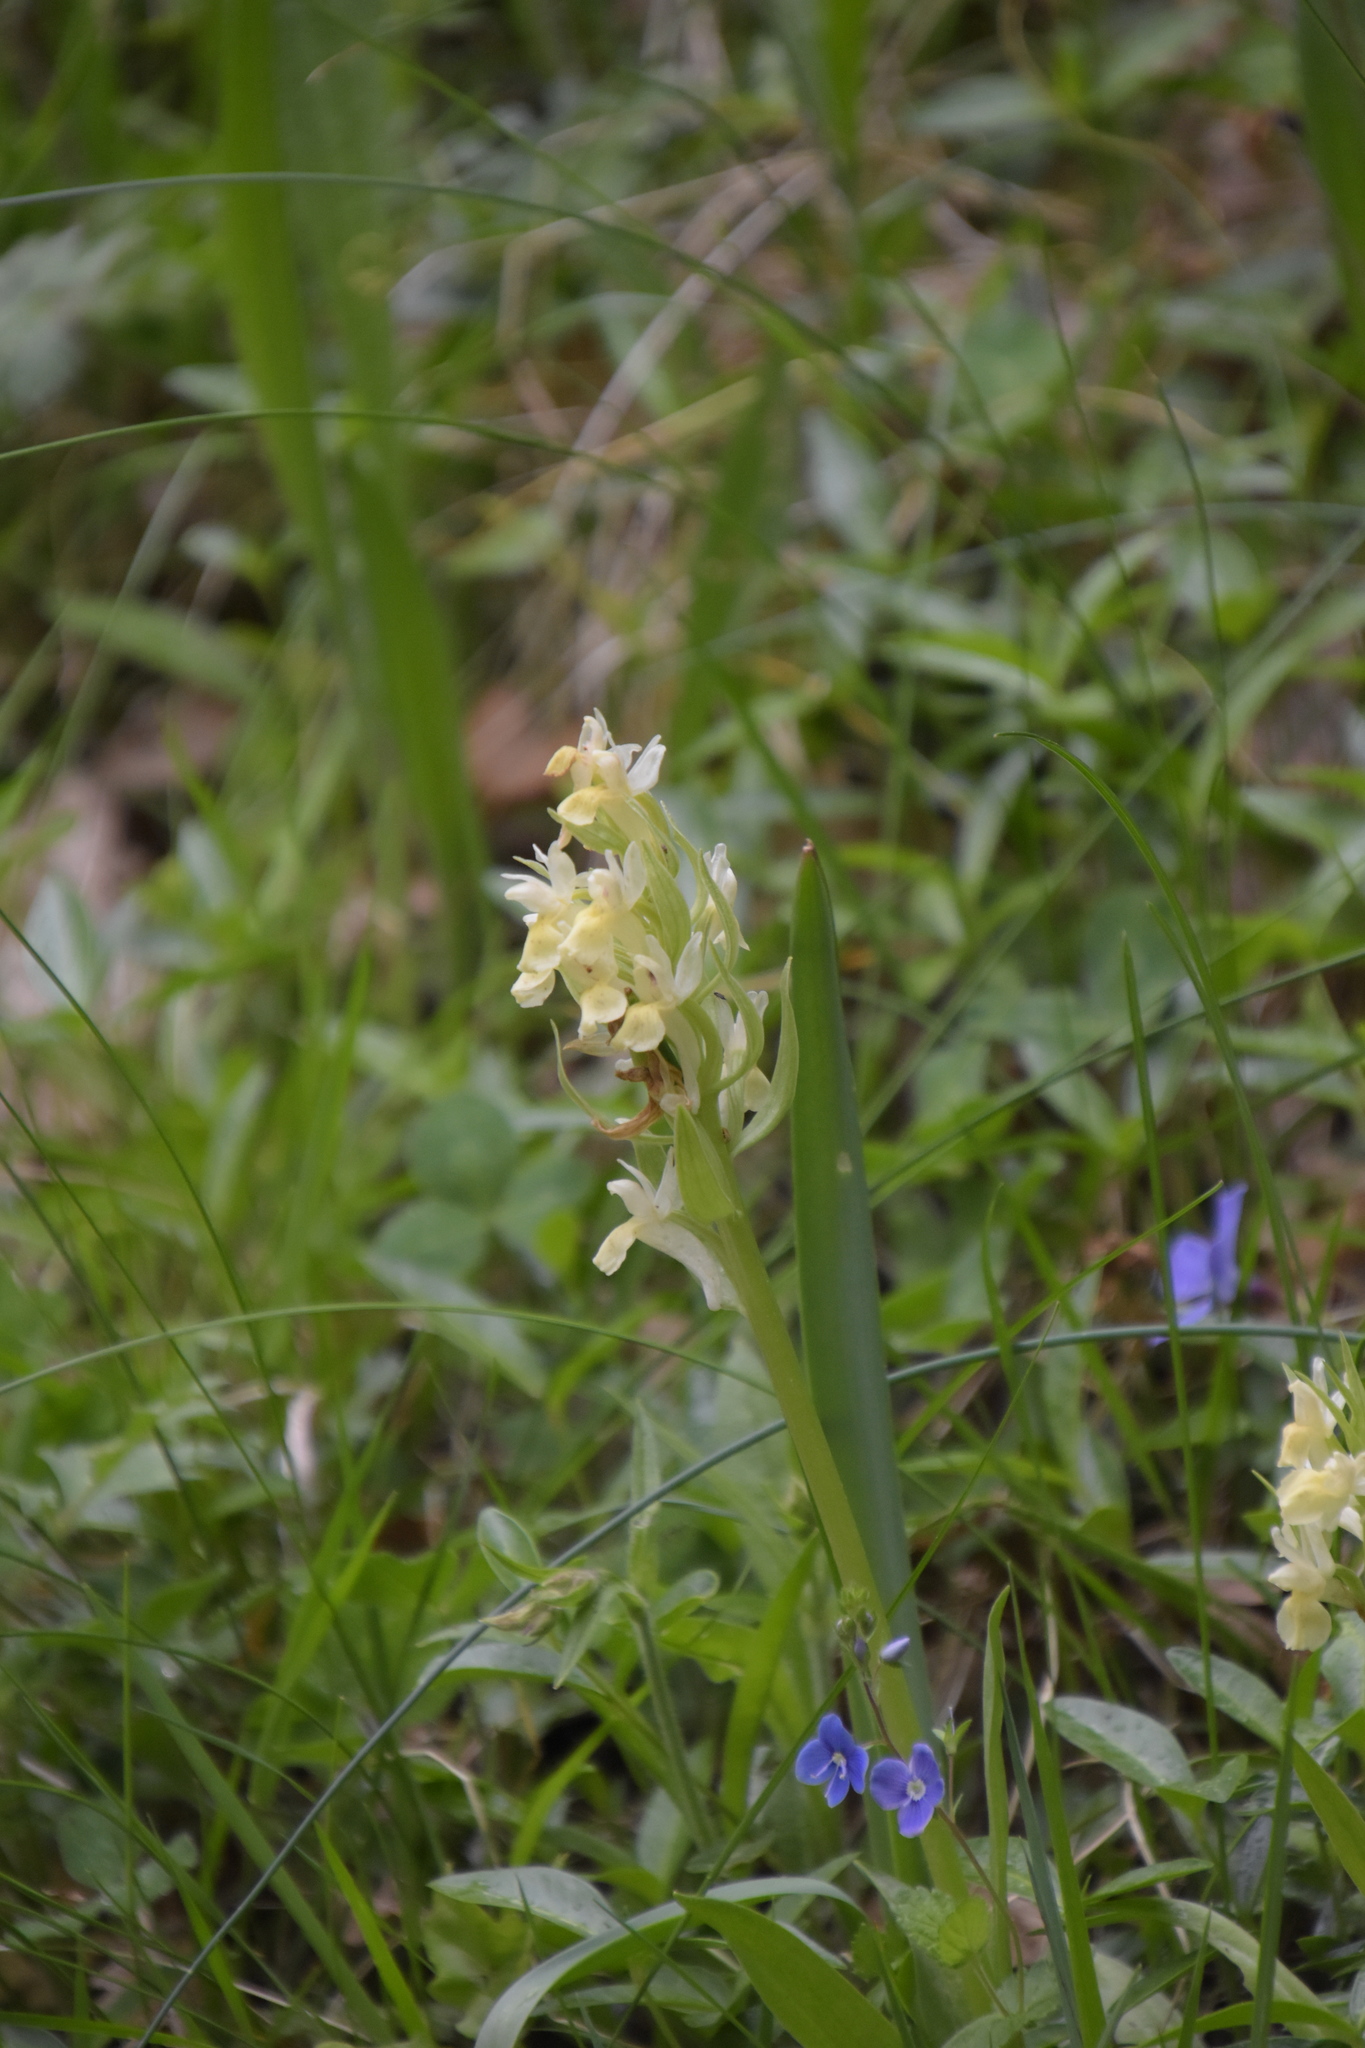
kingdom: Plantae
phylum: Tracheophyta
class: Liliopsida
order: Asparagales
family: Orchidaceae
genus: Dactylorhiza
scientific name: Dactylorhiza sambucina
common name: Elder-flowered orchid
